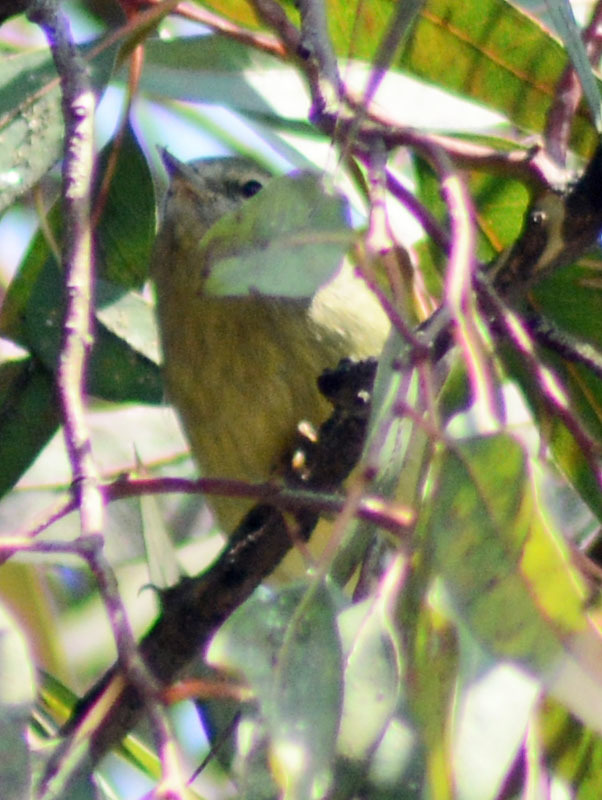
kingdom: Animalia
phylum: Chordata
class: Aves
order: Passeriformes
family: Parulidae
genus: Leiothlypis
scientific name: Leiothlypis celata
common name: Orange-crowned warbler
